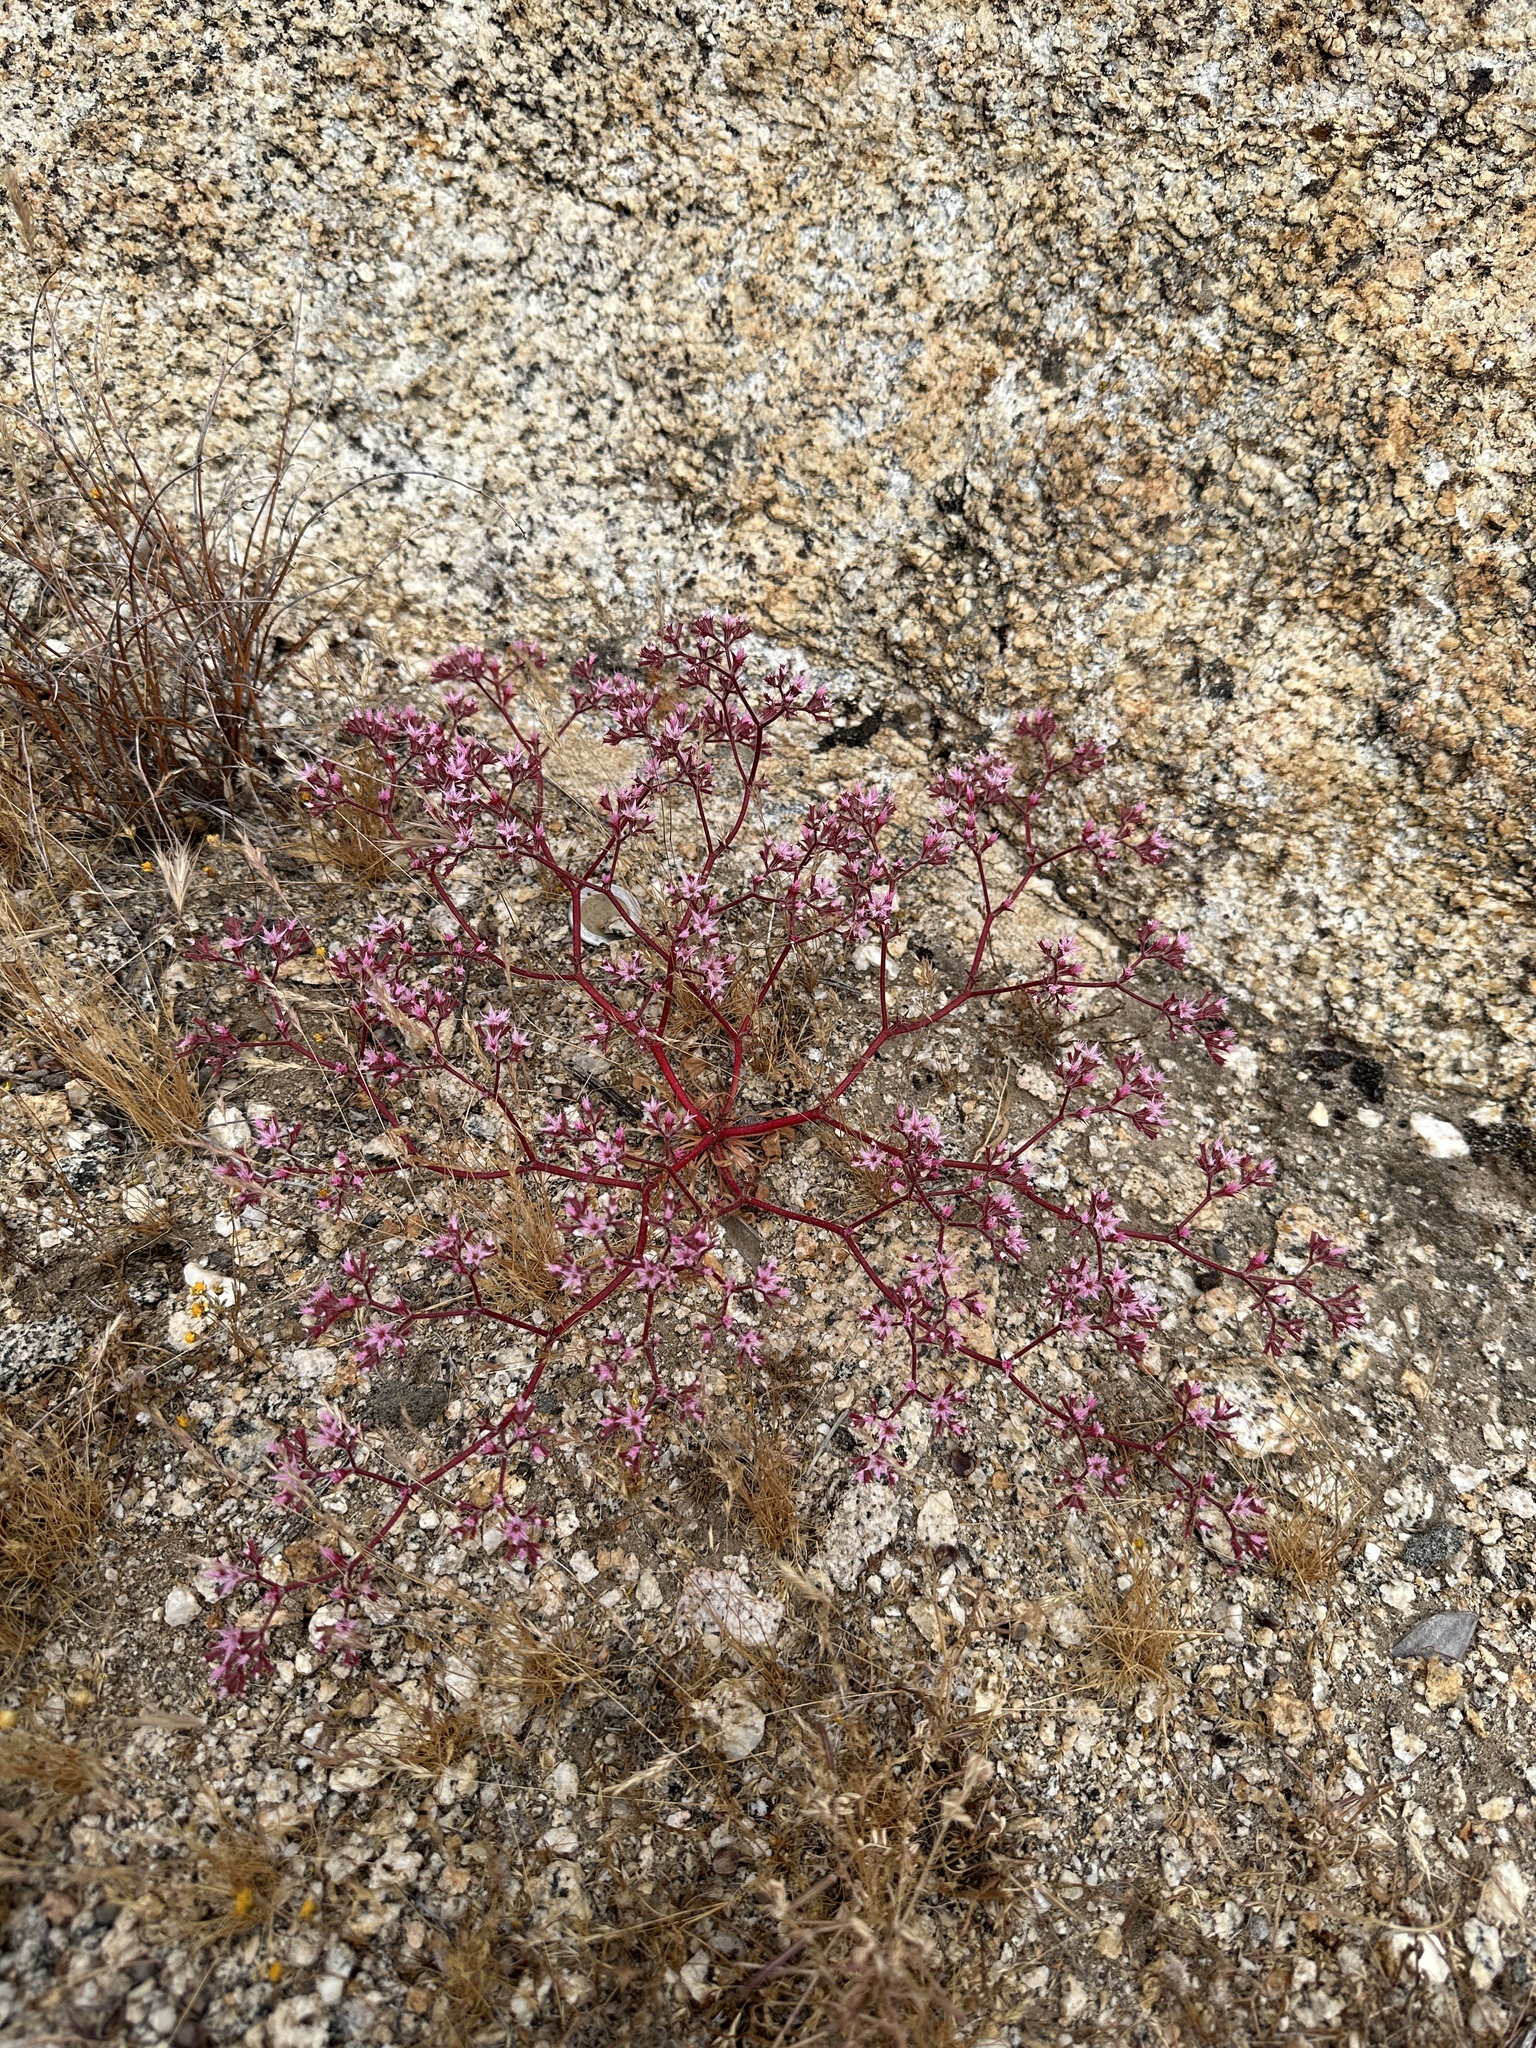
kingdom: Plantae
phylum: Tracheophyta
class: Magnoliopsida
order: Caryophyllales
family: Polygonaceae
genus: Chorizanthe
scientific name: Chorizanthe fimbriata
